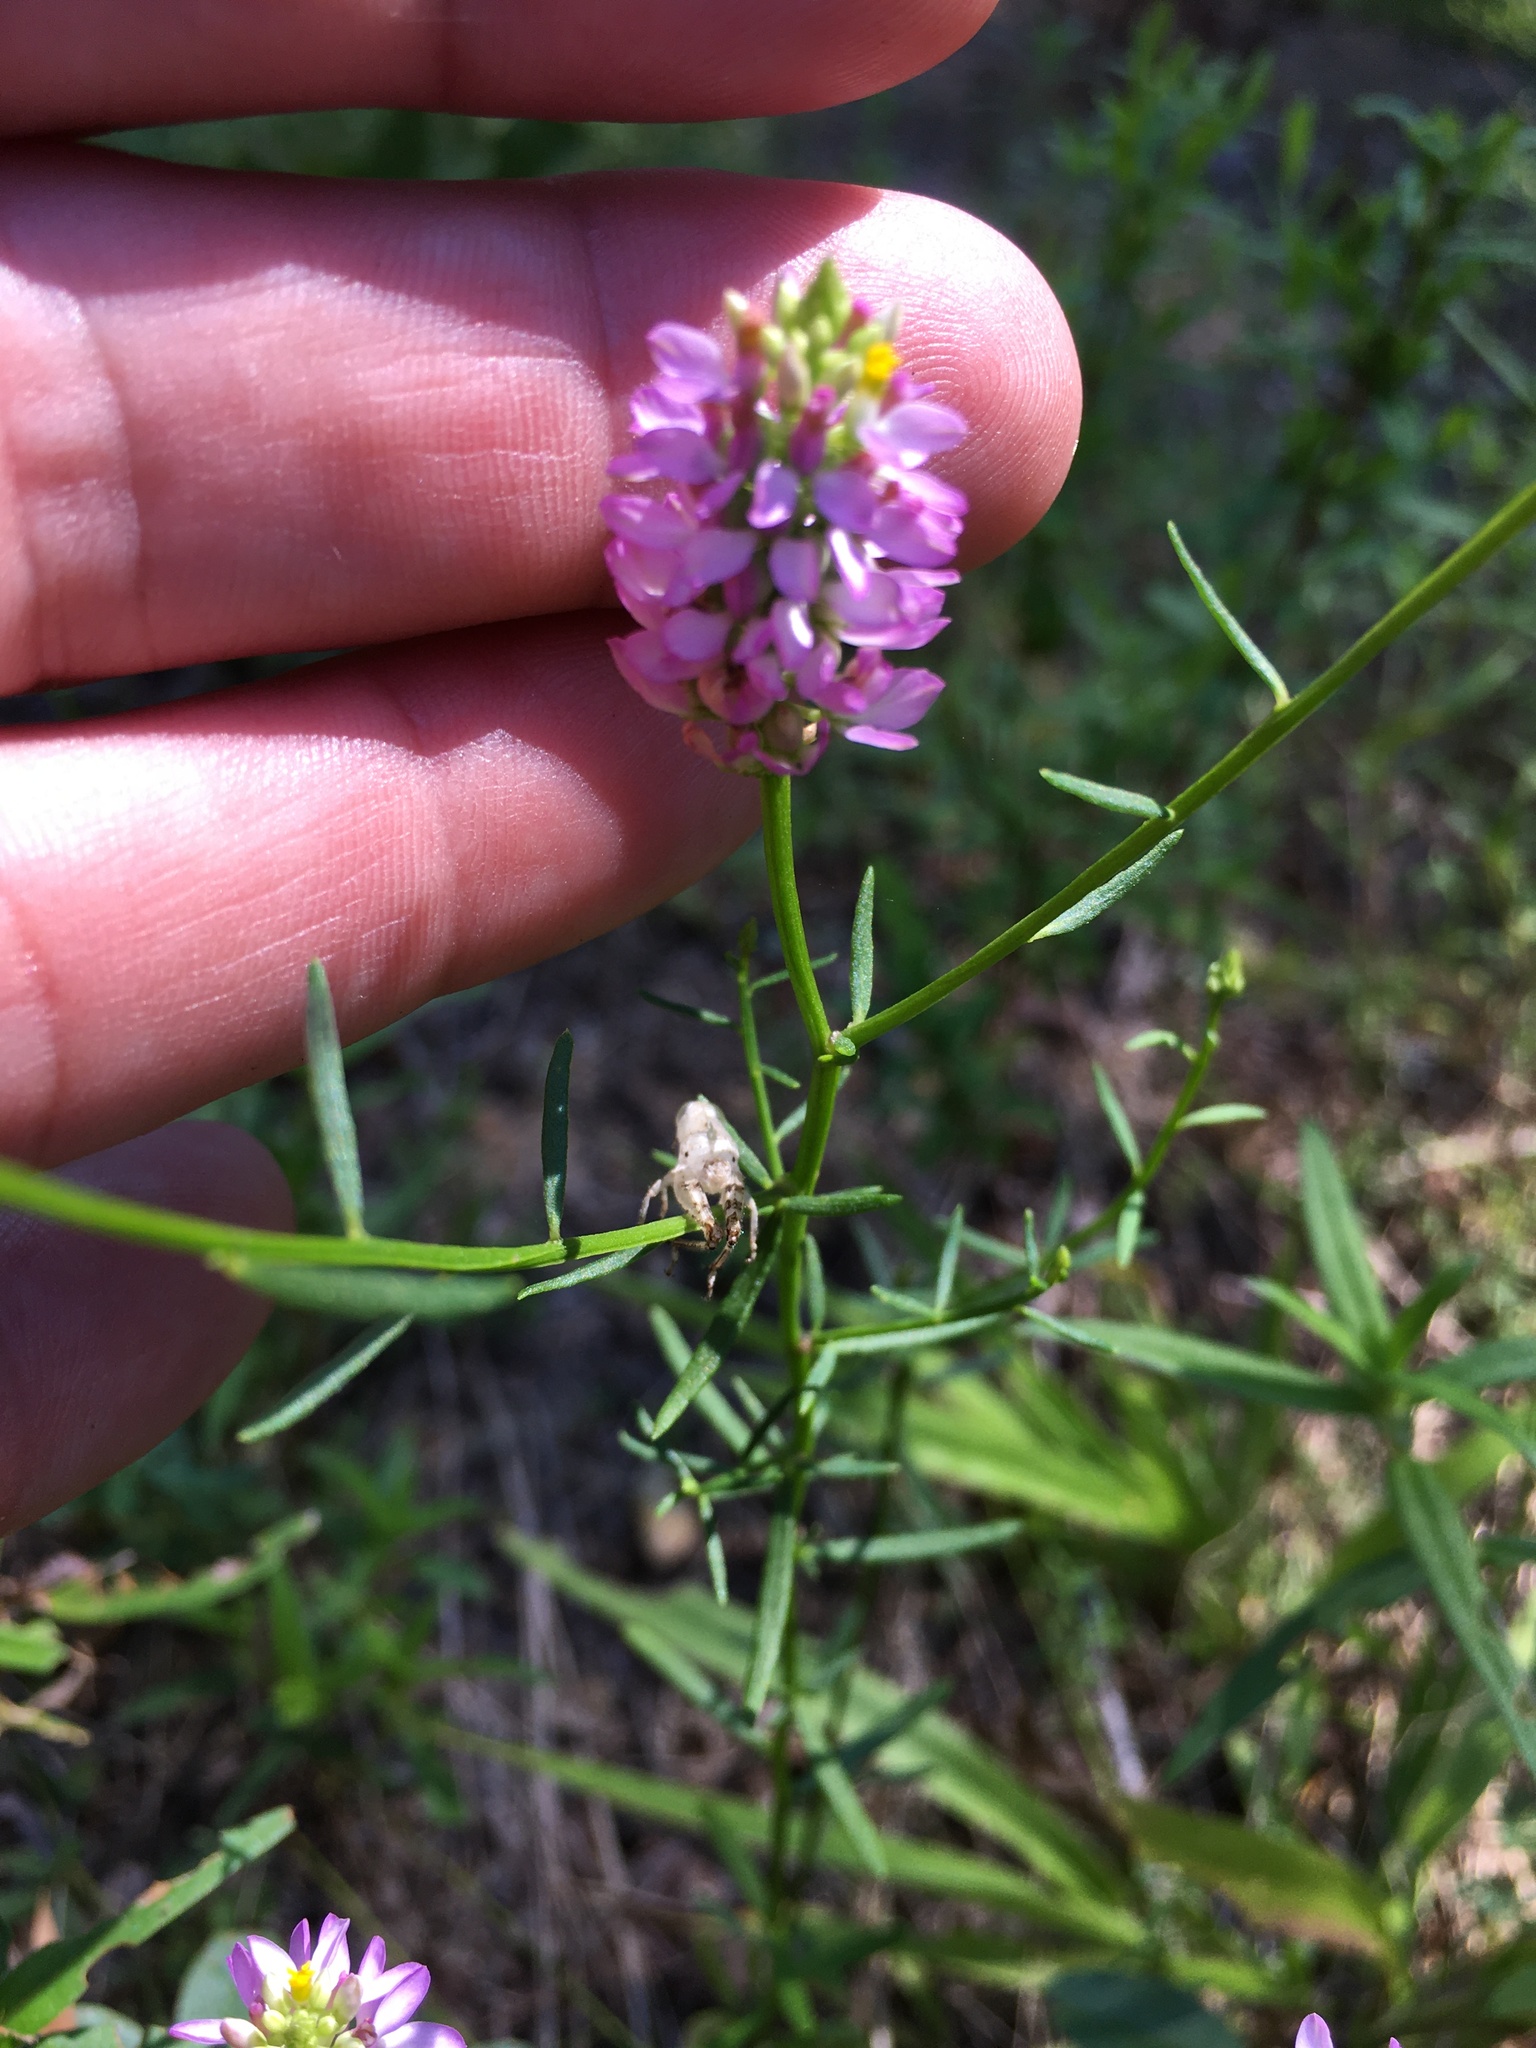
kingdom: Plantae
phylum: Tracheophyta
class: Magnoliopsida
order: Fabales
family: Polygalaceae
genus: Polygala
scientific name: Polygala curtissii
